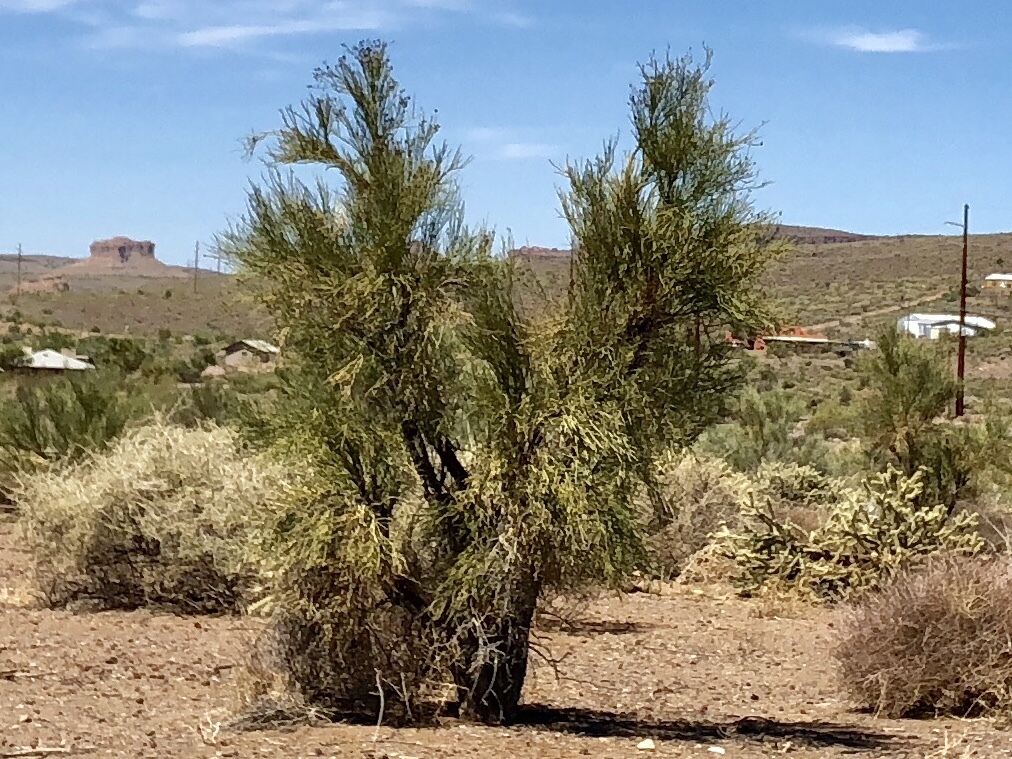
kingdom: Plantae
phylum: Tracheophyta
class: Magnoliopsida
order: Celastrales
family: Celastraceae
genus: Canotia
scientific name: Canotia holacantha
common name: Crucifixion thorns
